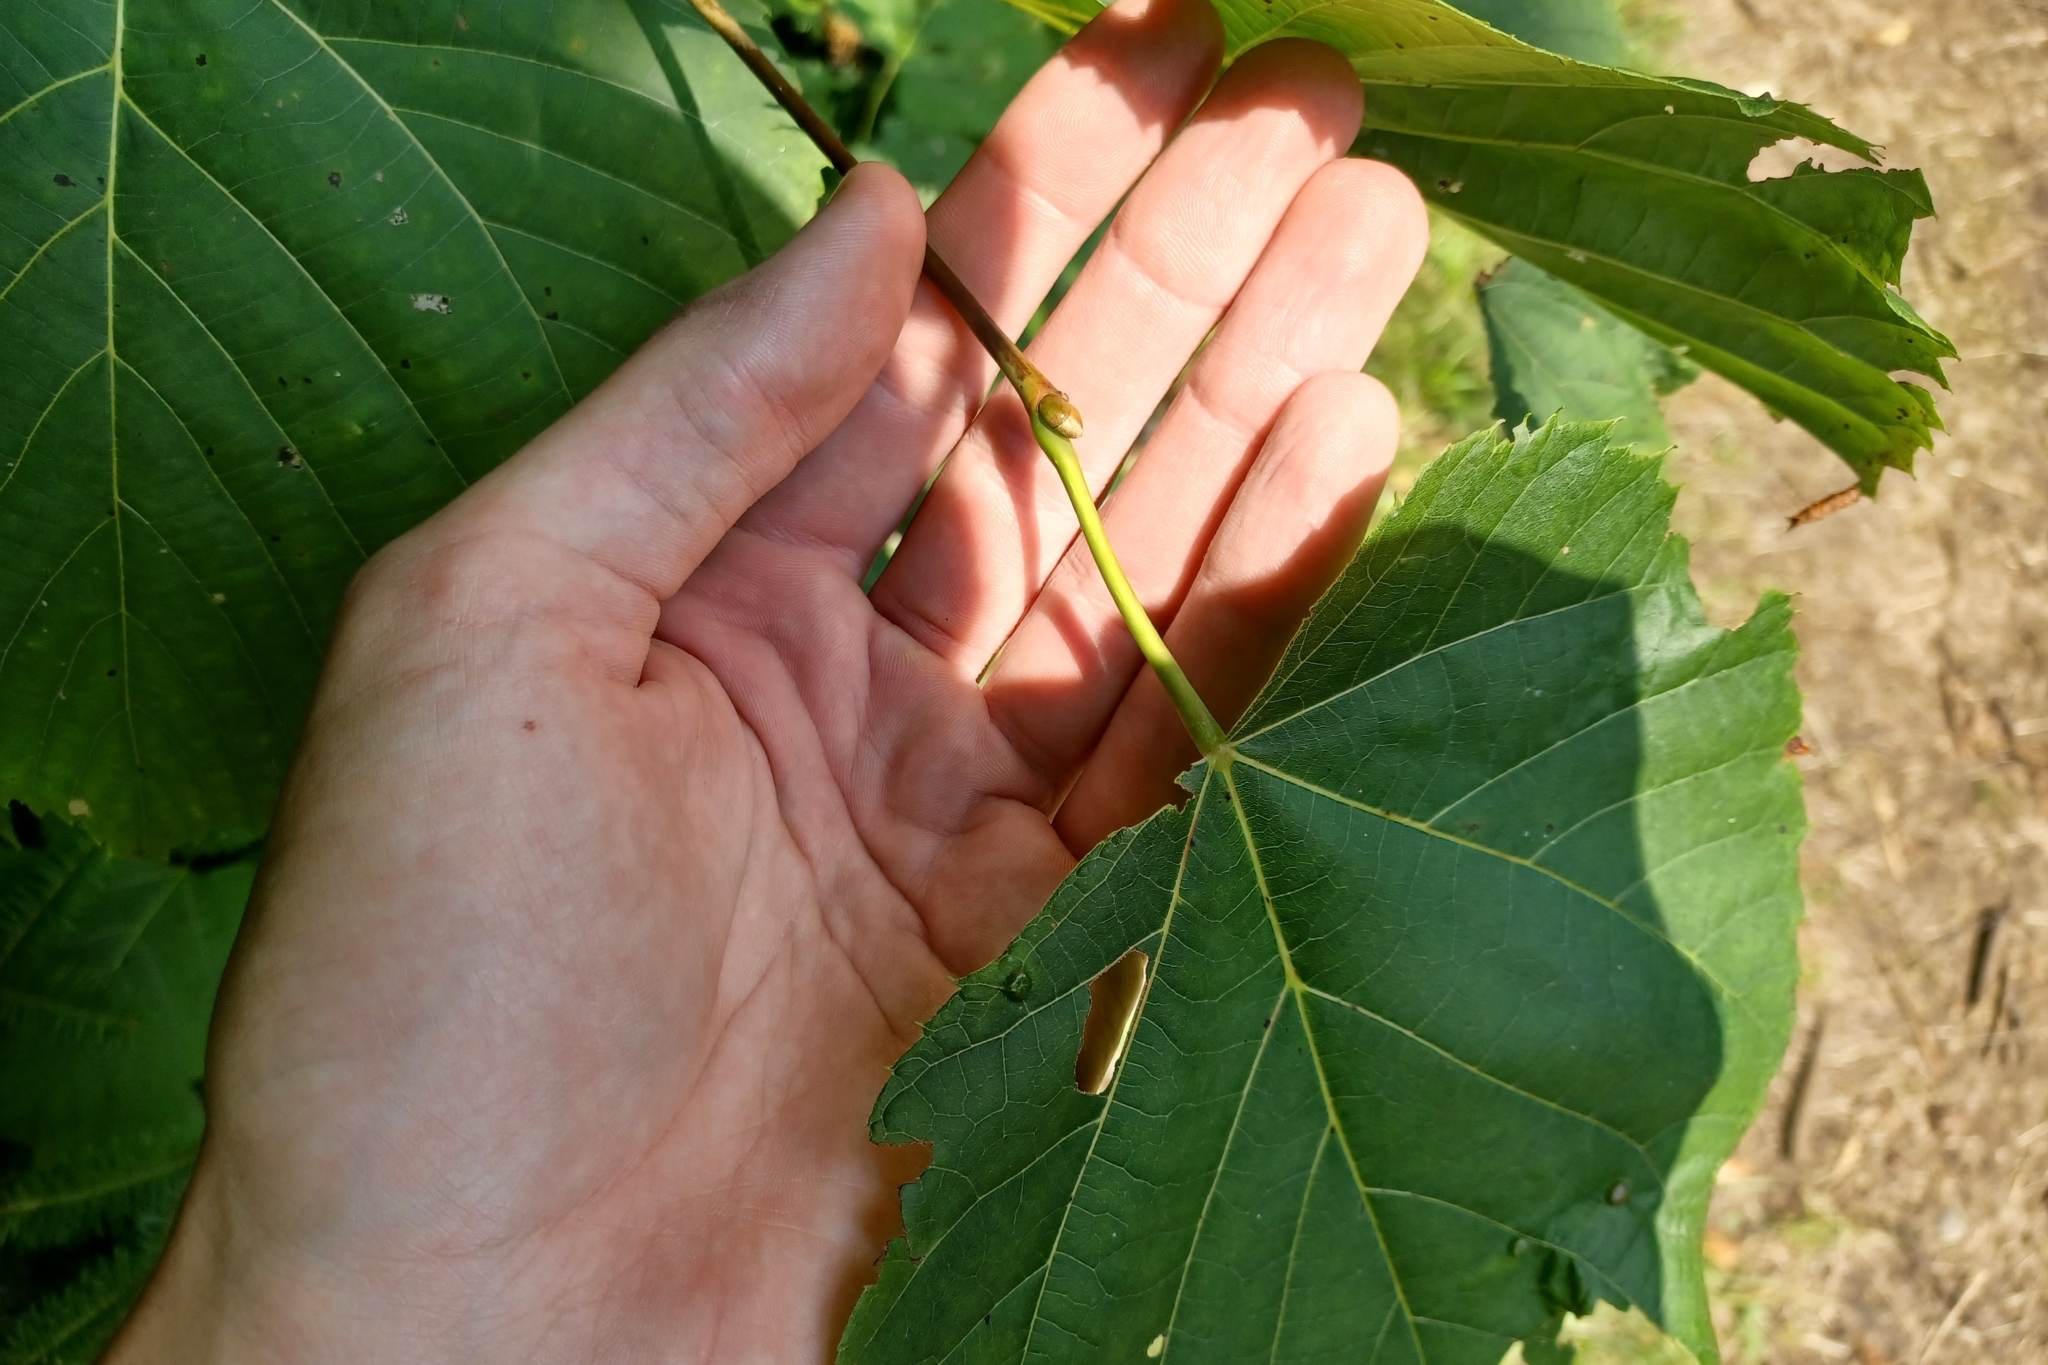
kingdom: Plantae
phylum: Tracheophyta
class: Magnoliopsida
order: Malvales
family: Malvaceae
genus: Tilia
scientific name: Tilia americana
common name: Basswood
